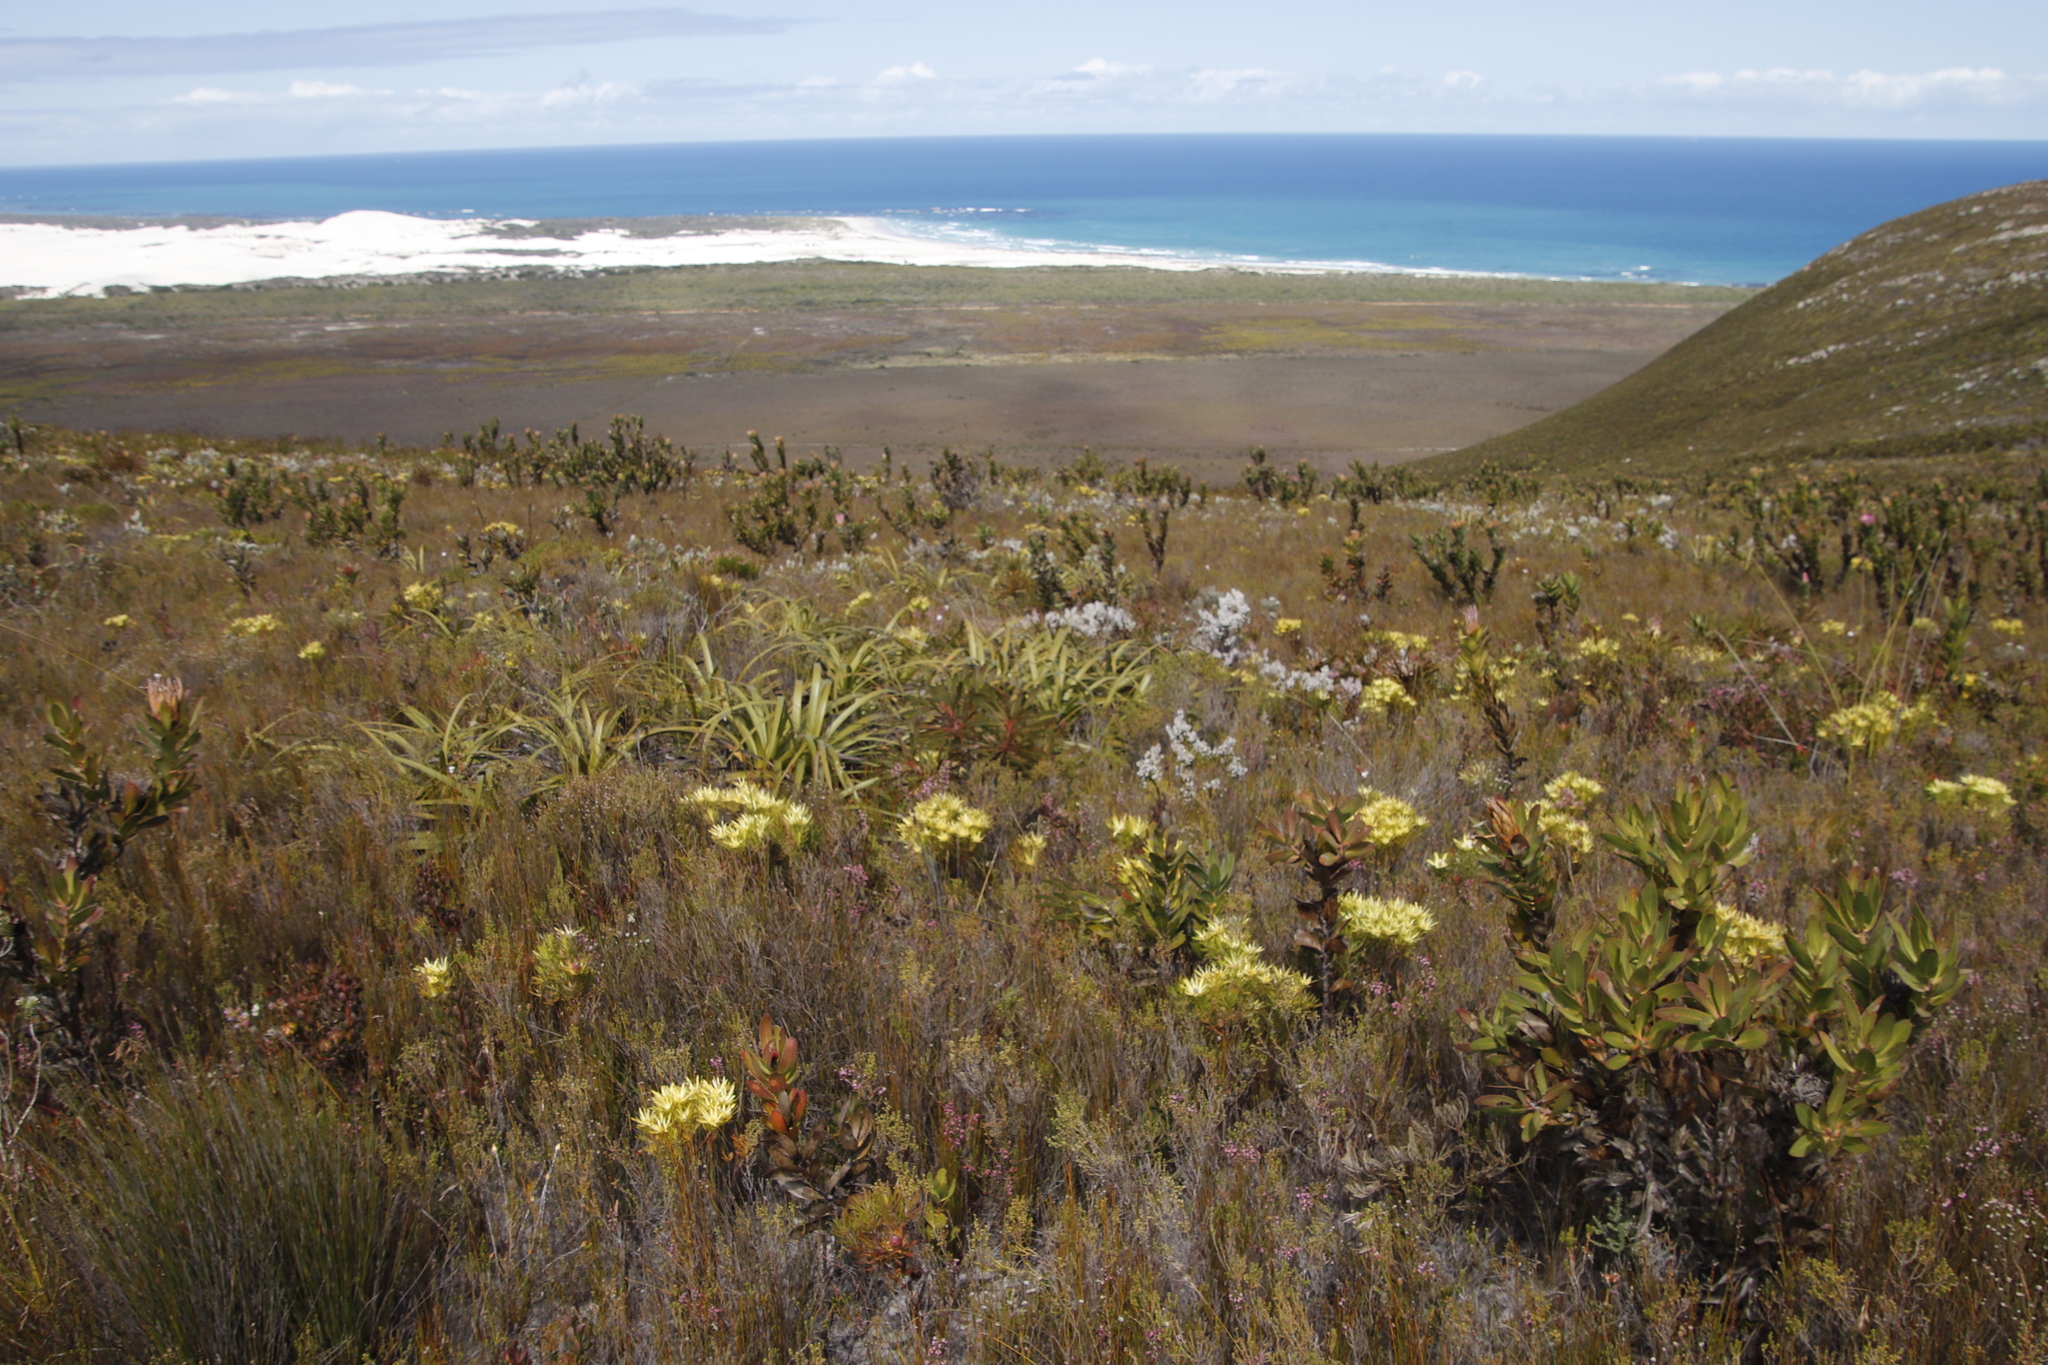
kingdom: Plantae
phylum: Tracheophyta
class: Liliopsida
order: Poales
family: Cyperaceae
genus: Tetraria
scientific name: Tetraria thermalis
